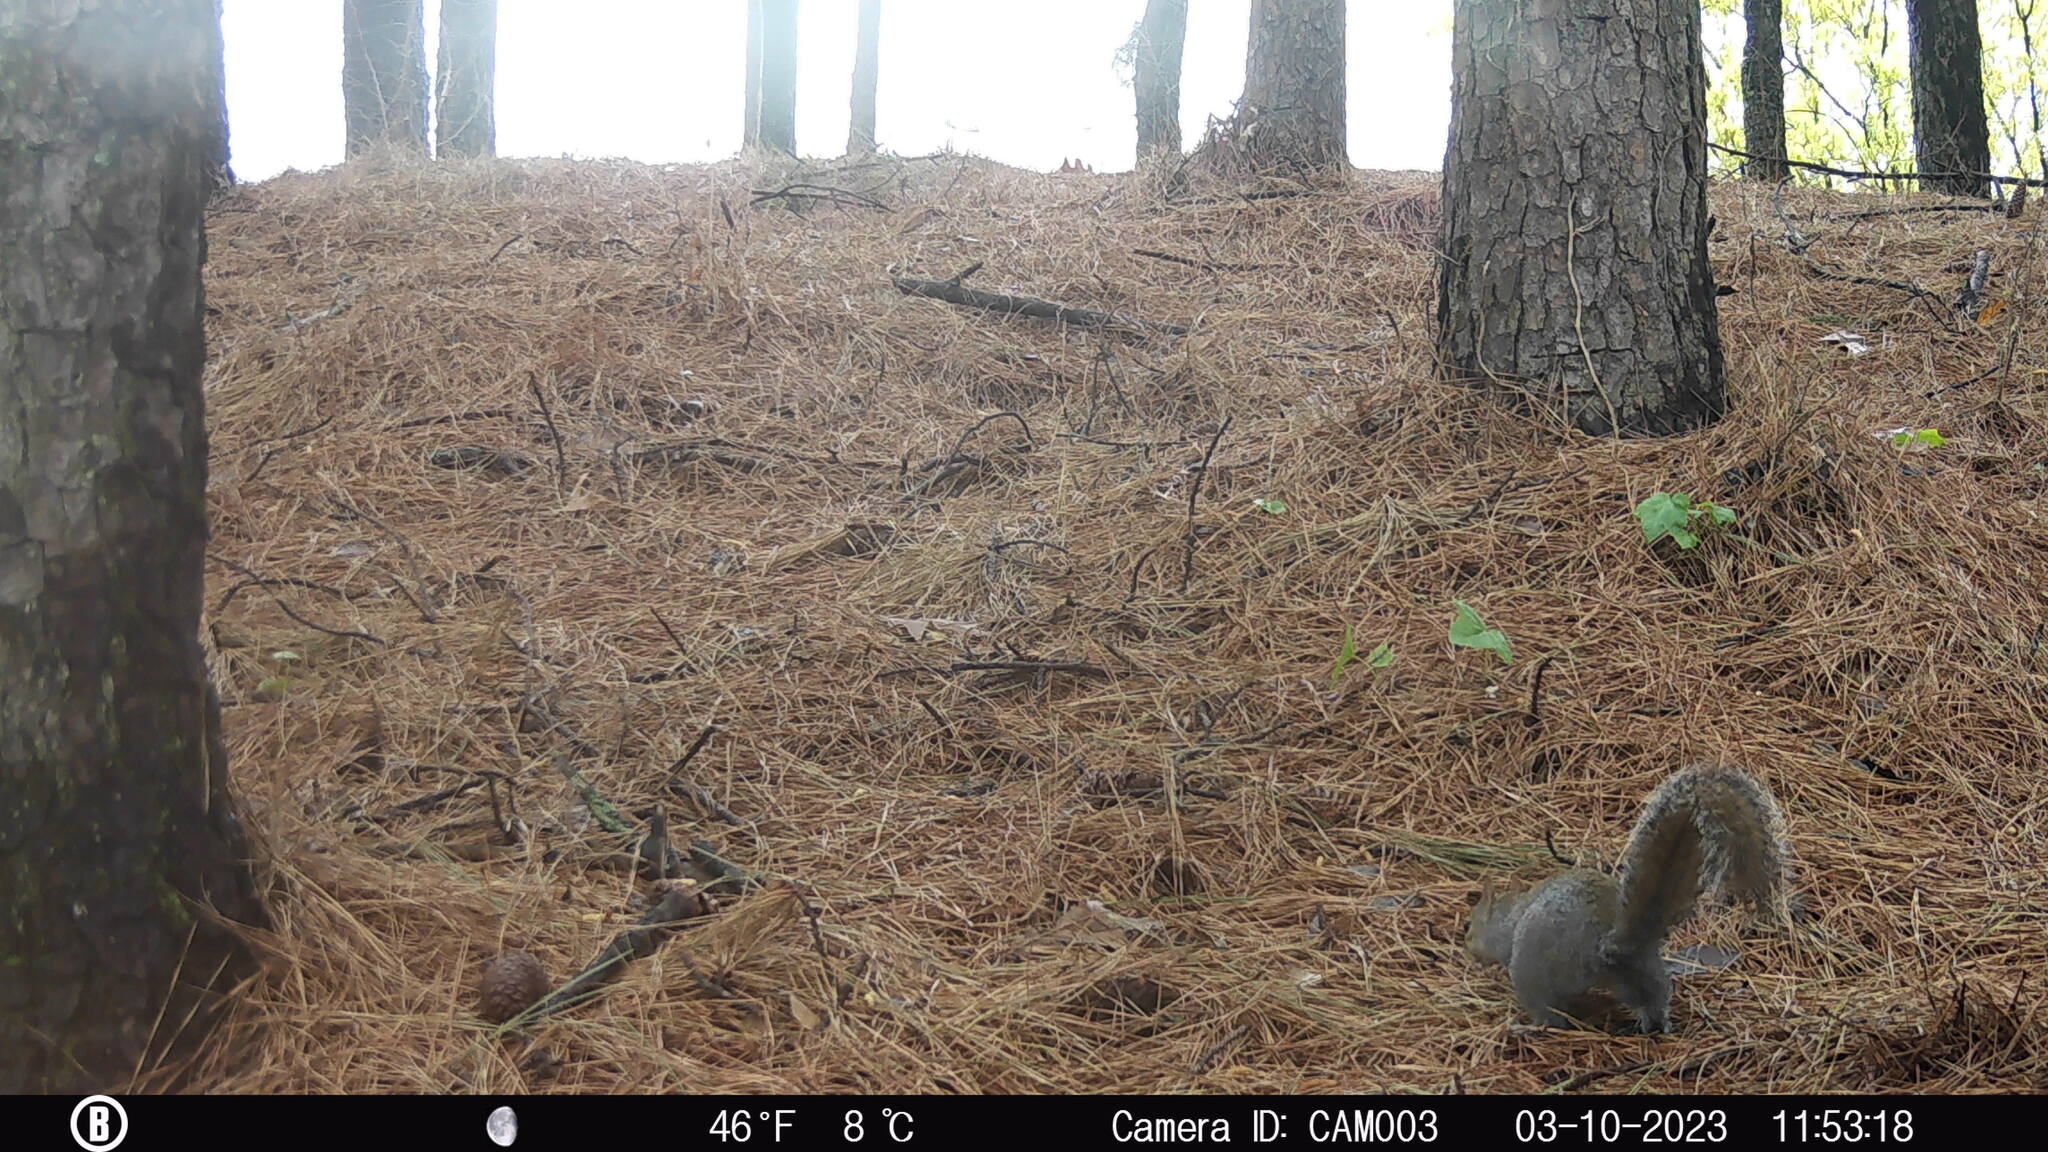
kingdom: Animalia
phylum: Chordata
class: Mammalia
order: Rodentia
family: Sciuridae
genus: Sciurus
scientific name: Sciurus carolinensis
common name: Eastern gray squirrel
